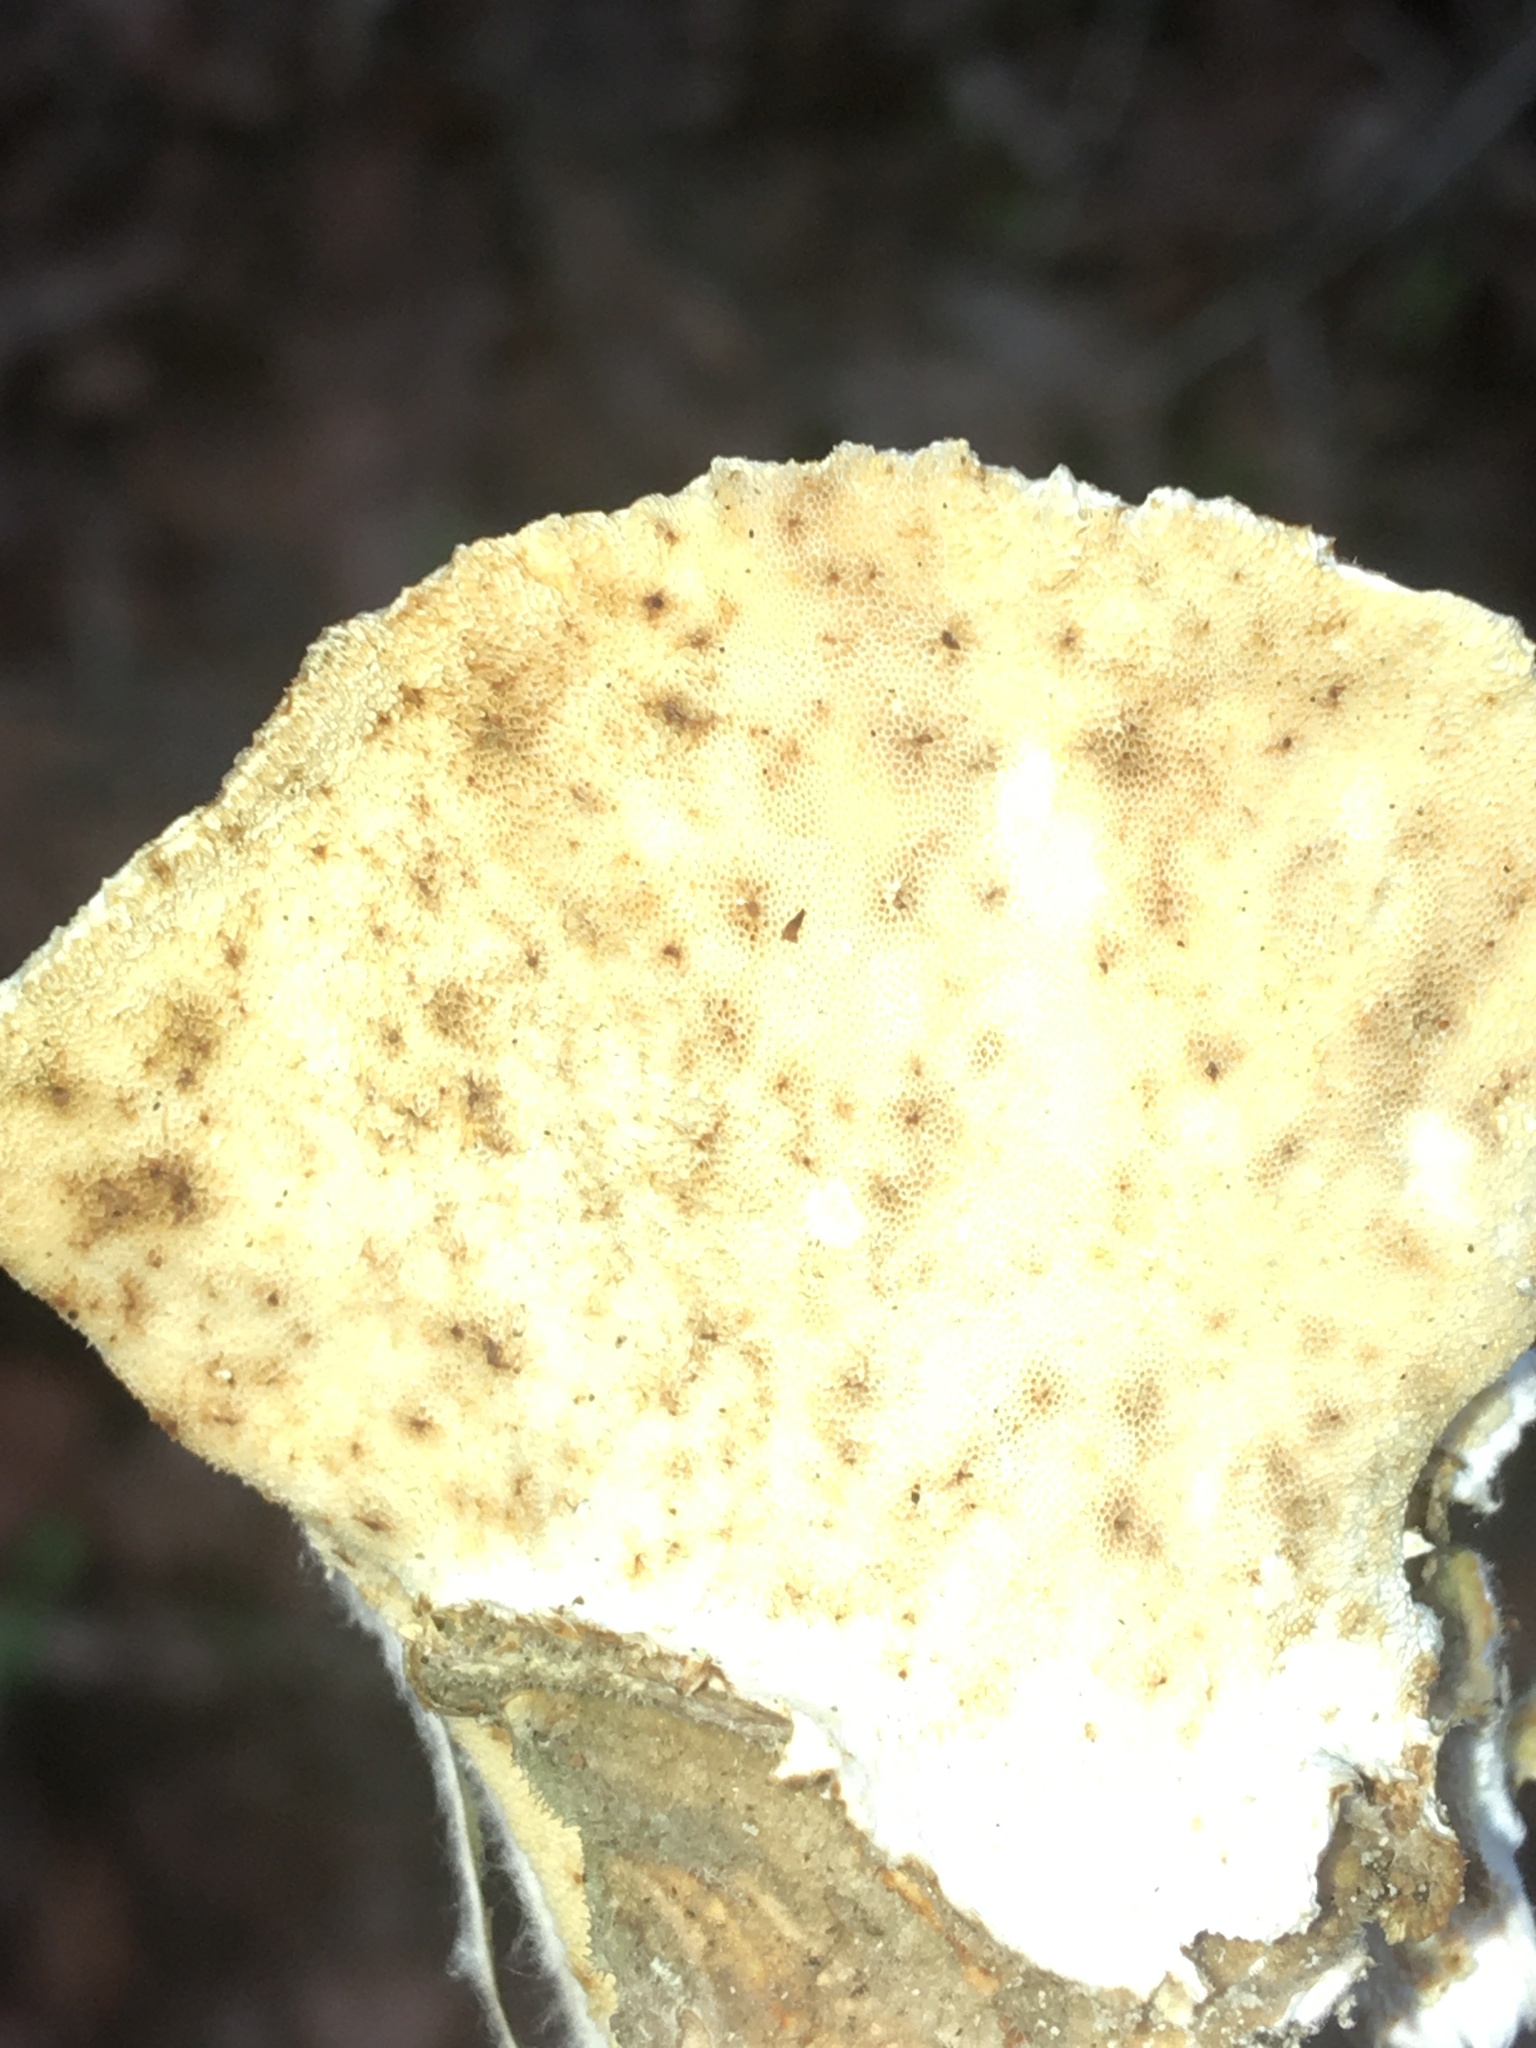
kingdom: Fungi
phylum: Basidiomycota
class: Agaricomycetes
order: Polyporales
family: Polyporaceae
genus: Trametes
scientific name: Trametes versicolor
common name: Turkeytail
